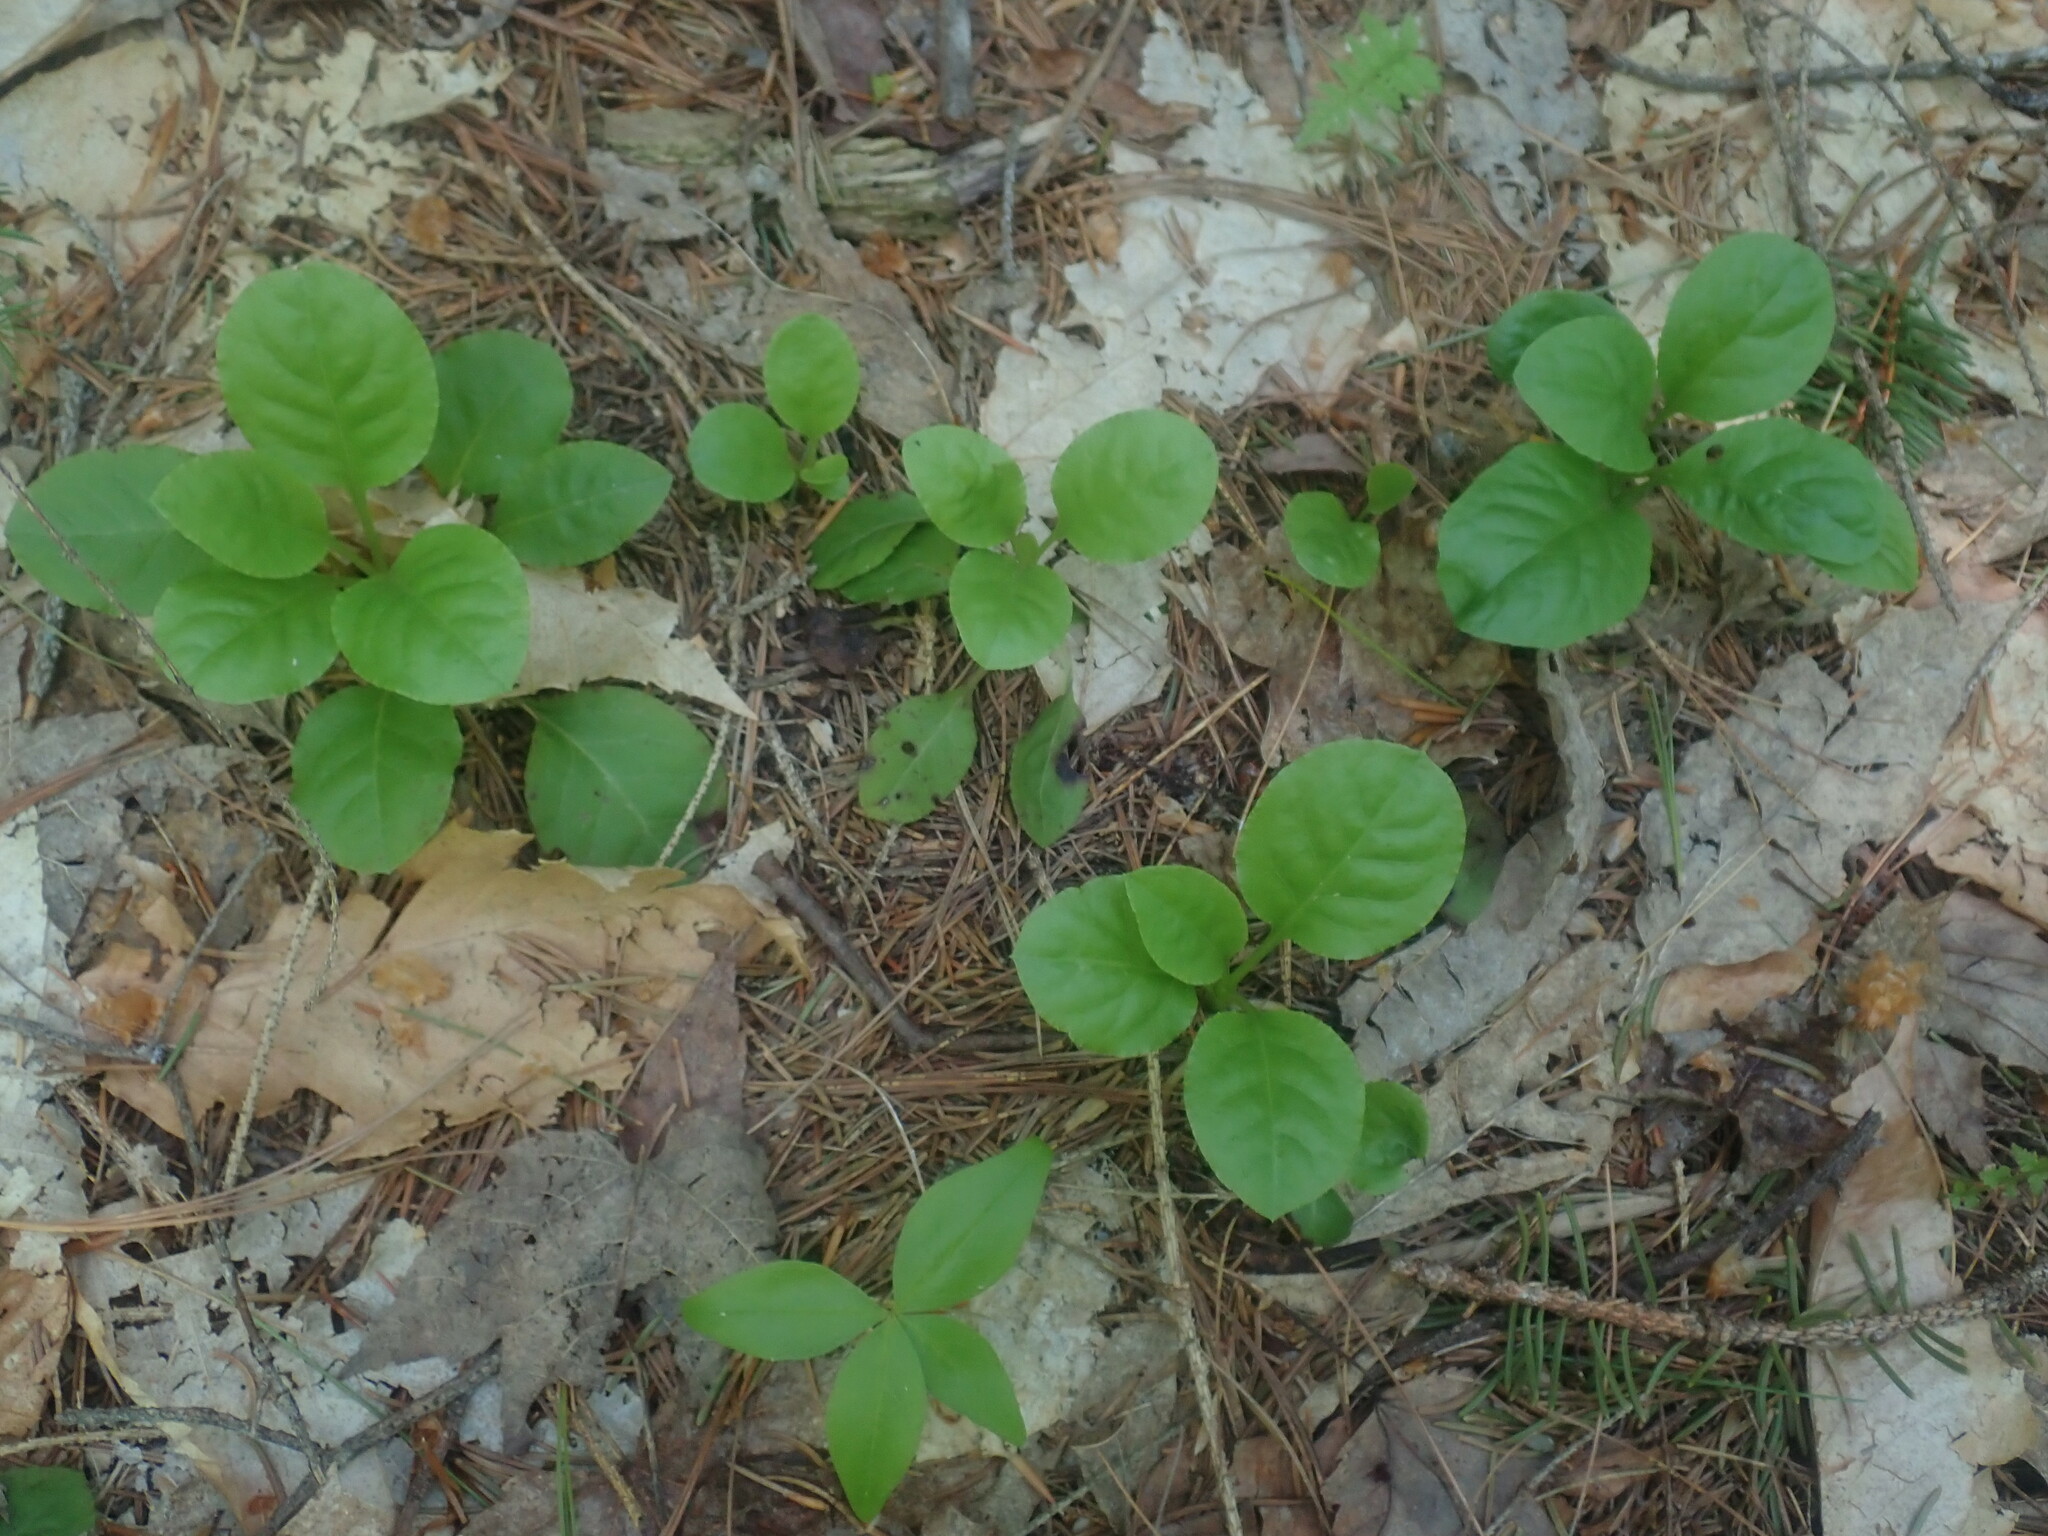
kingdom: Plantae
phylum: Tracheophyta
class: Magnoliopsida
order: Ericales
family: Ericaceae
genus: Pyrola
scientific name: Pyrola elliptica
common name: Shinleaf
